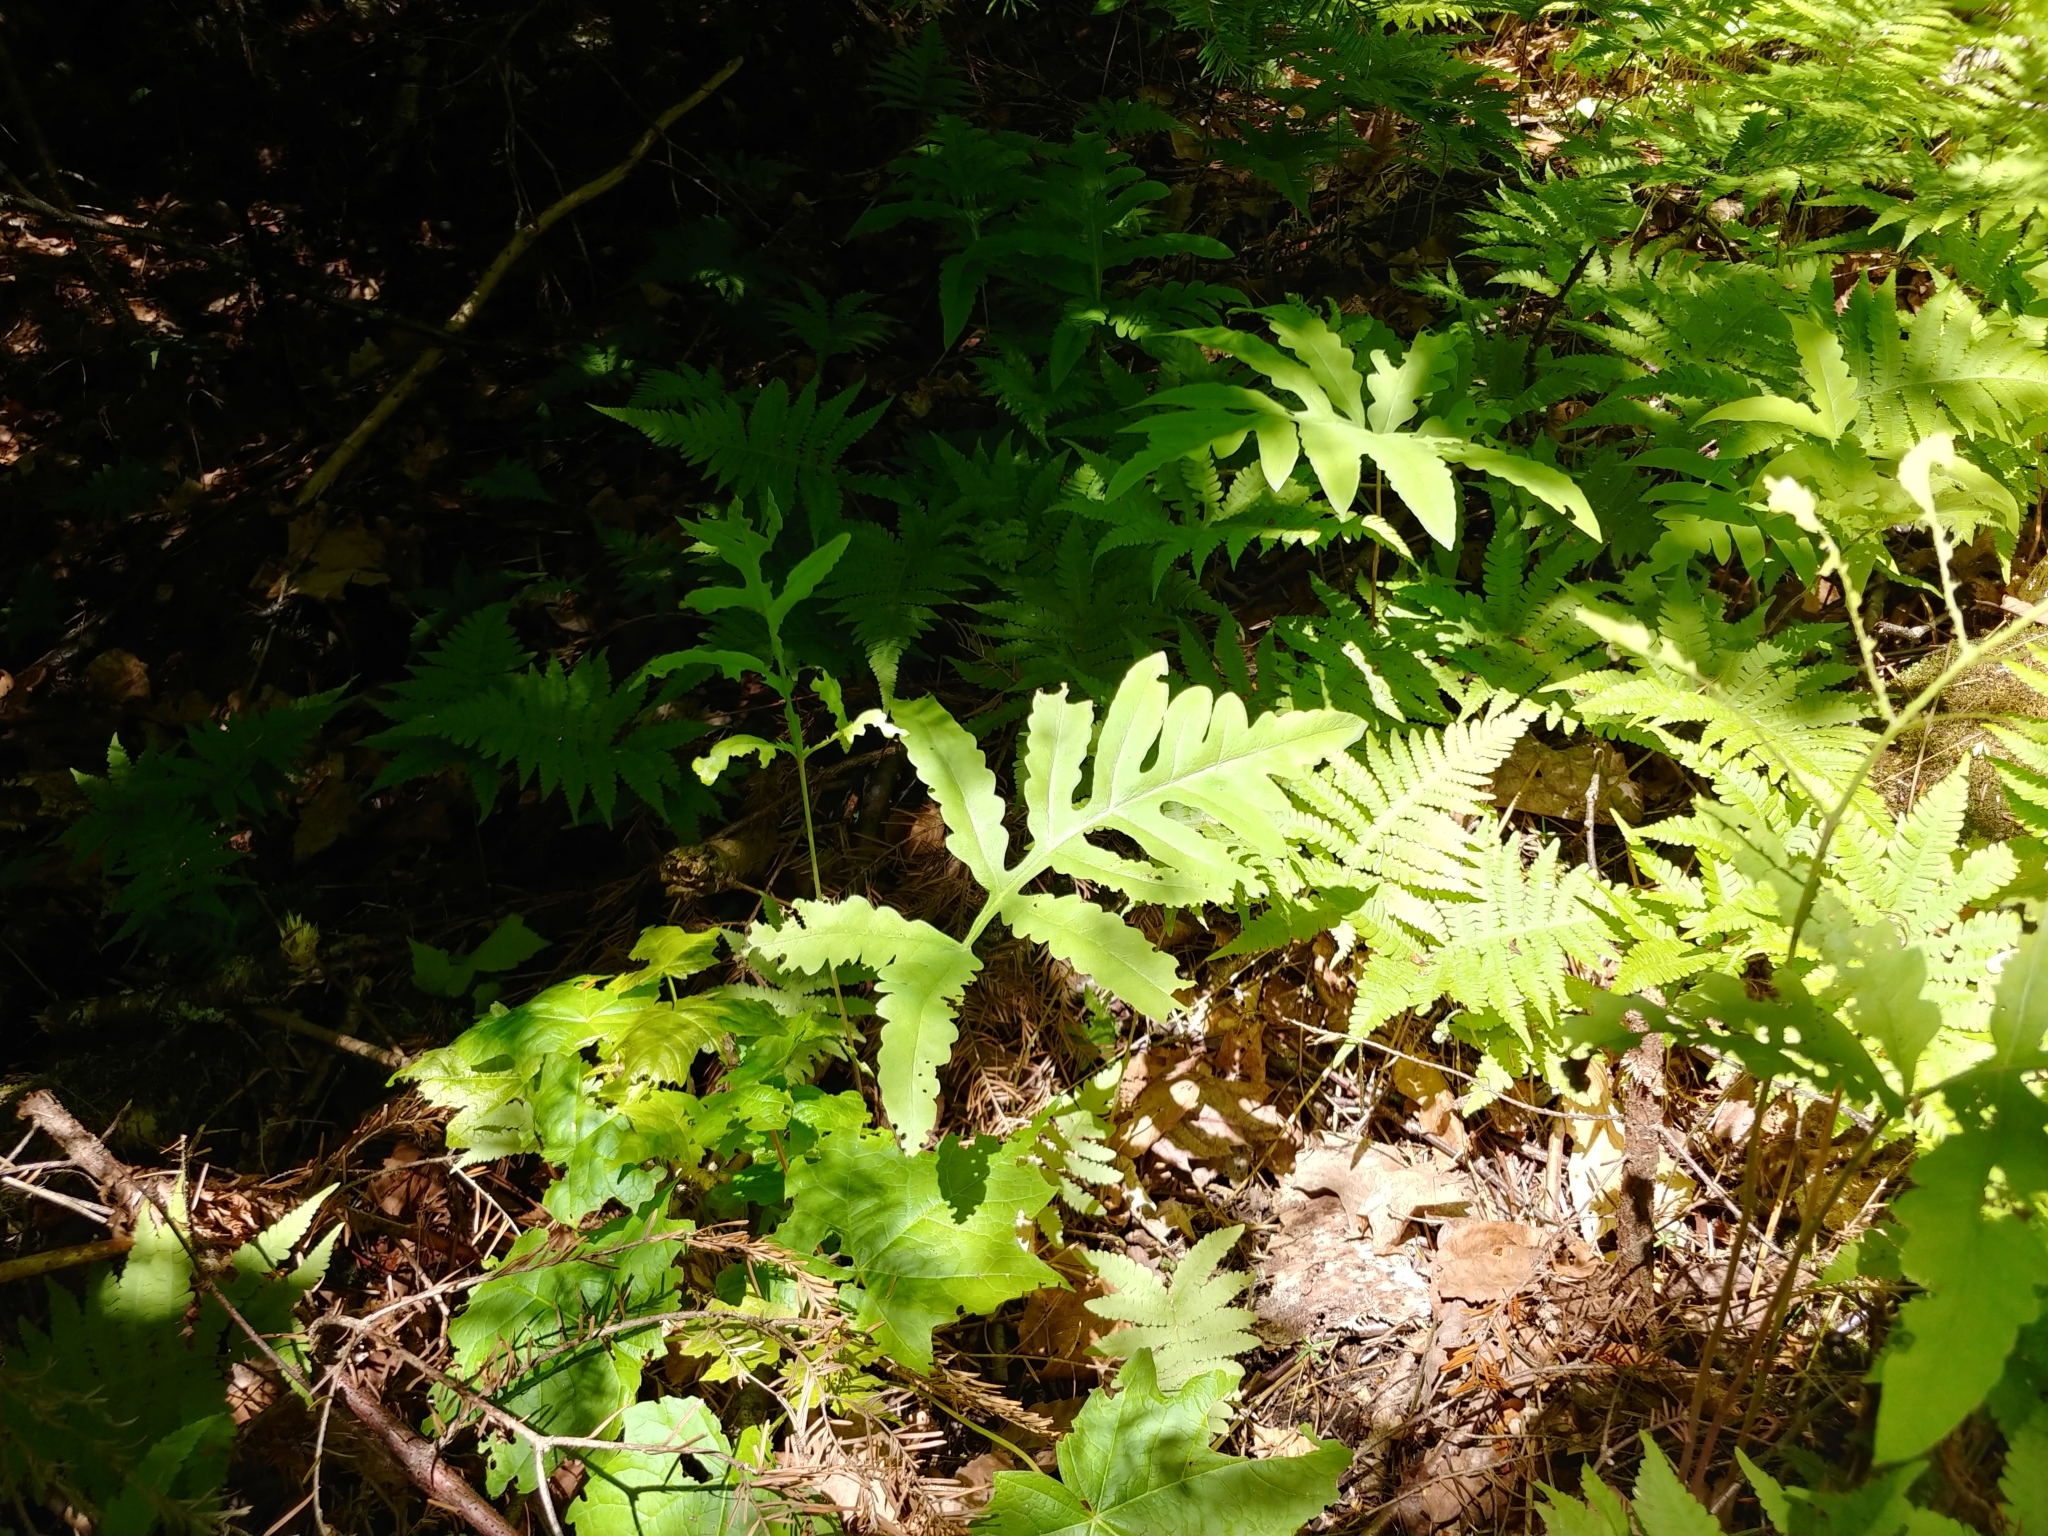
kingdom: Plantae
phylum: Tracheophyta
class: Polypodiopsida
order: Polypodiales
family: Onocleaceae
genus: Onoclea
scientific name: Onoclea sensibilis
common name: Sensitive fern
